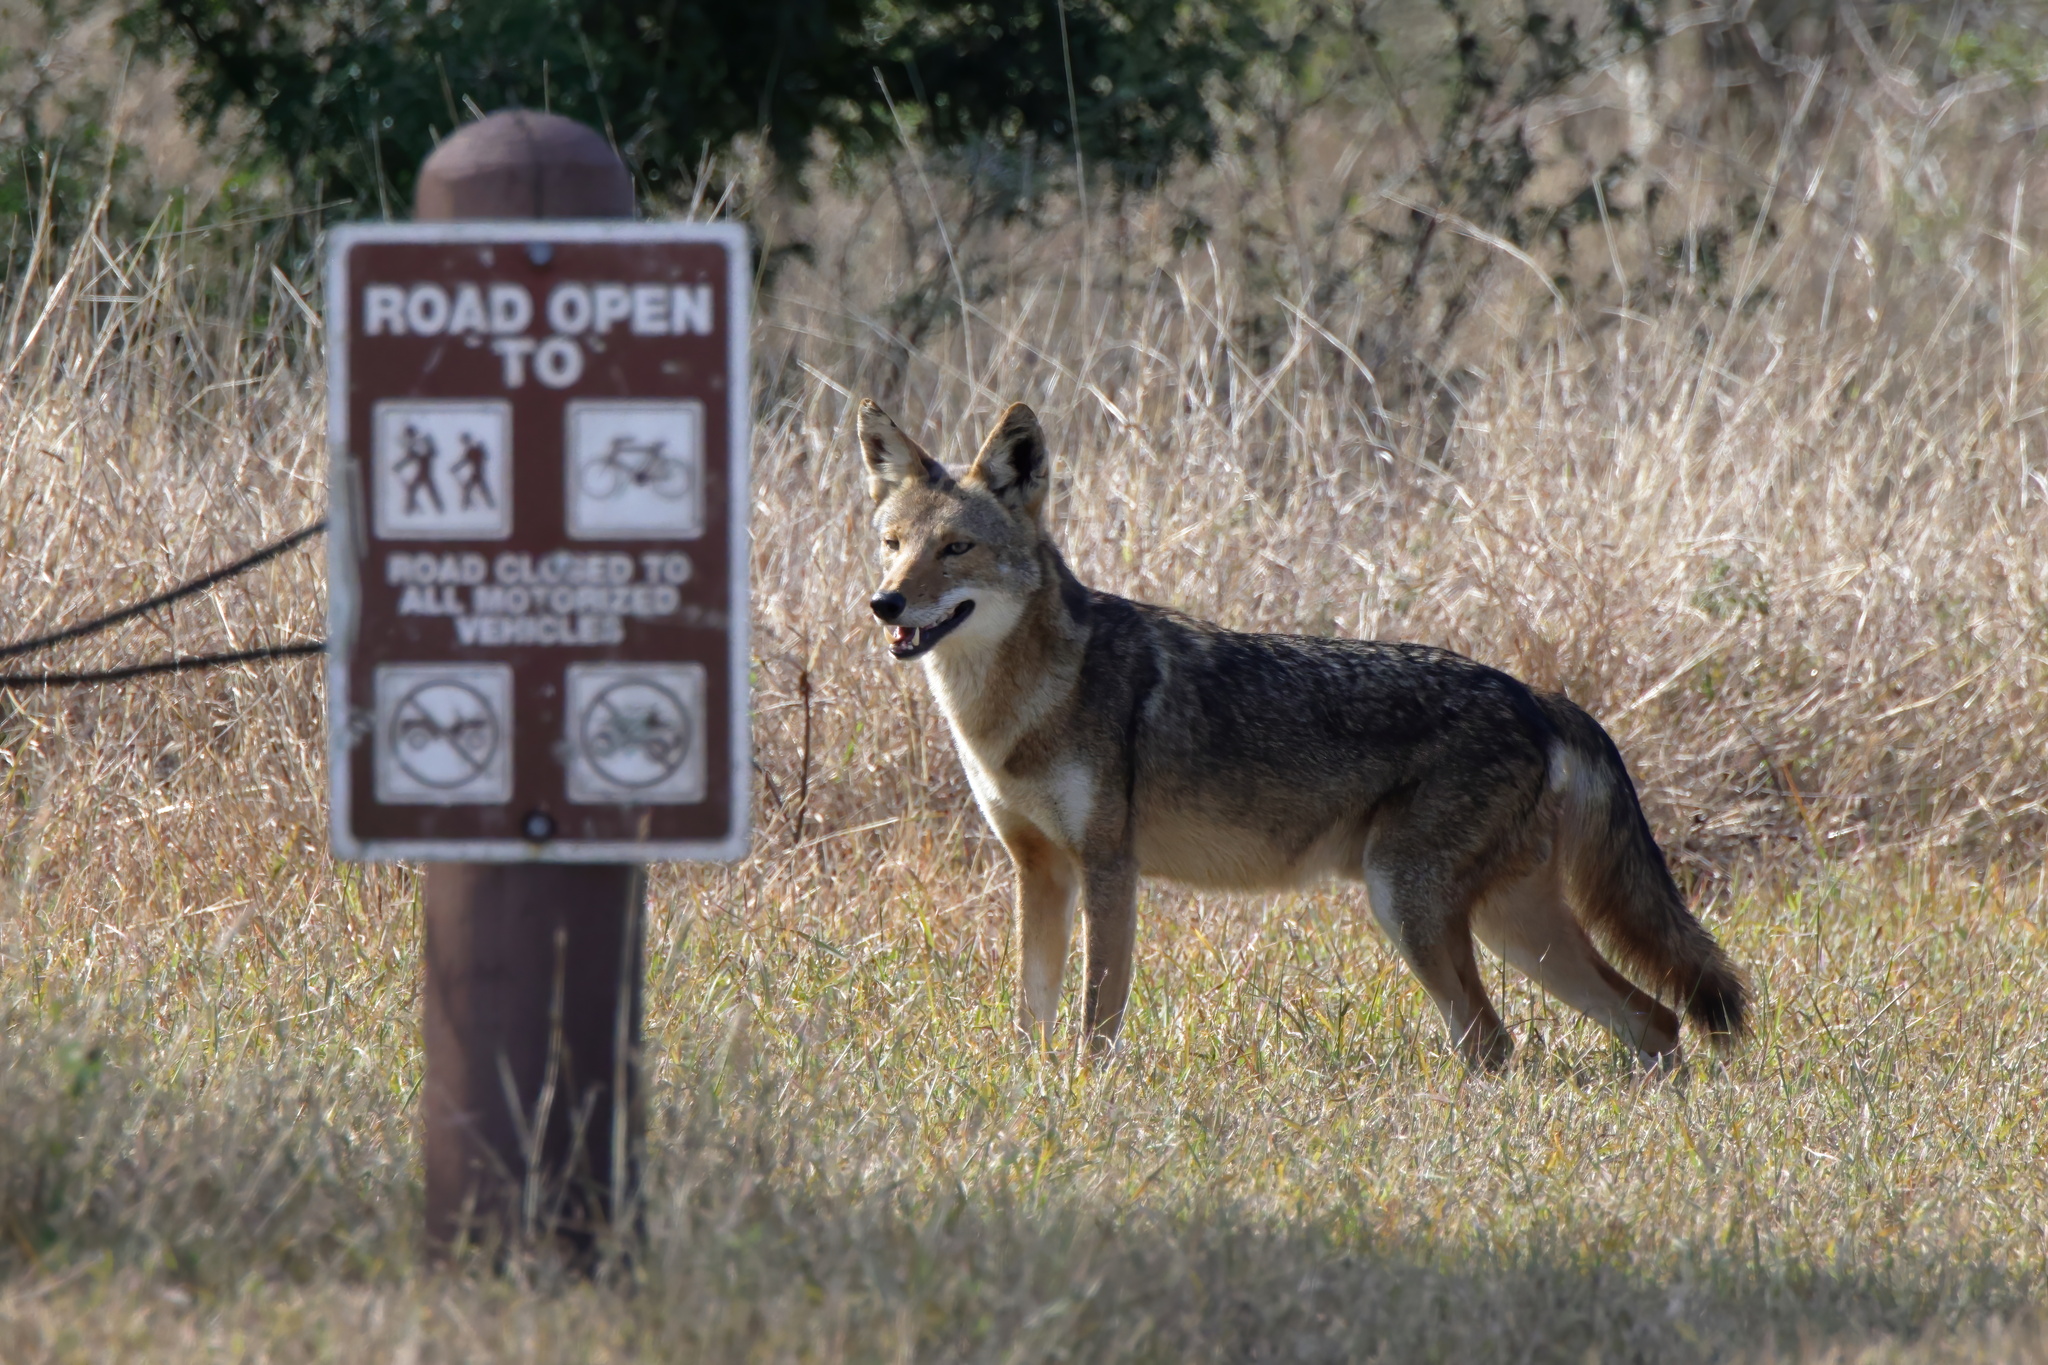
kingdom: Animalia
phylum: Chordata
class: Mammalia
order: Carnivora
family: Canidae
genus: Canis
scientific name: Canis latrans
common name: Coyote
